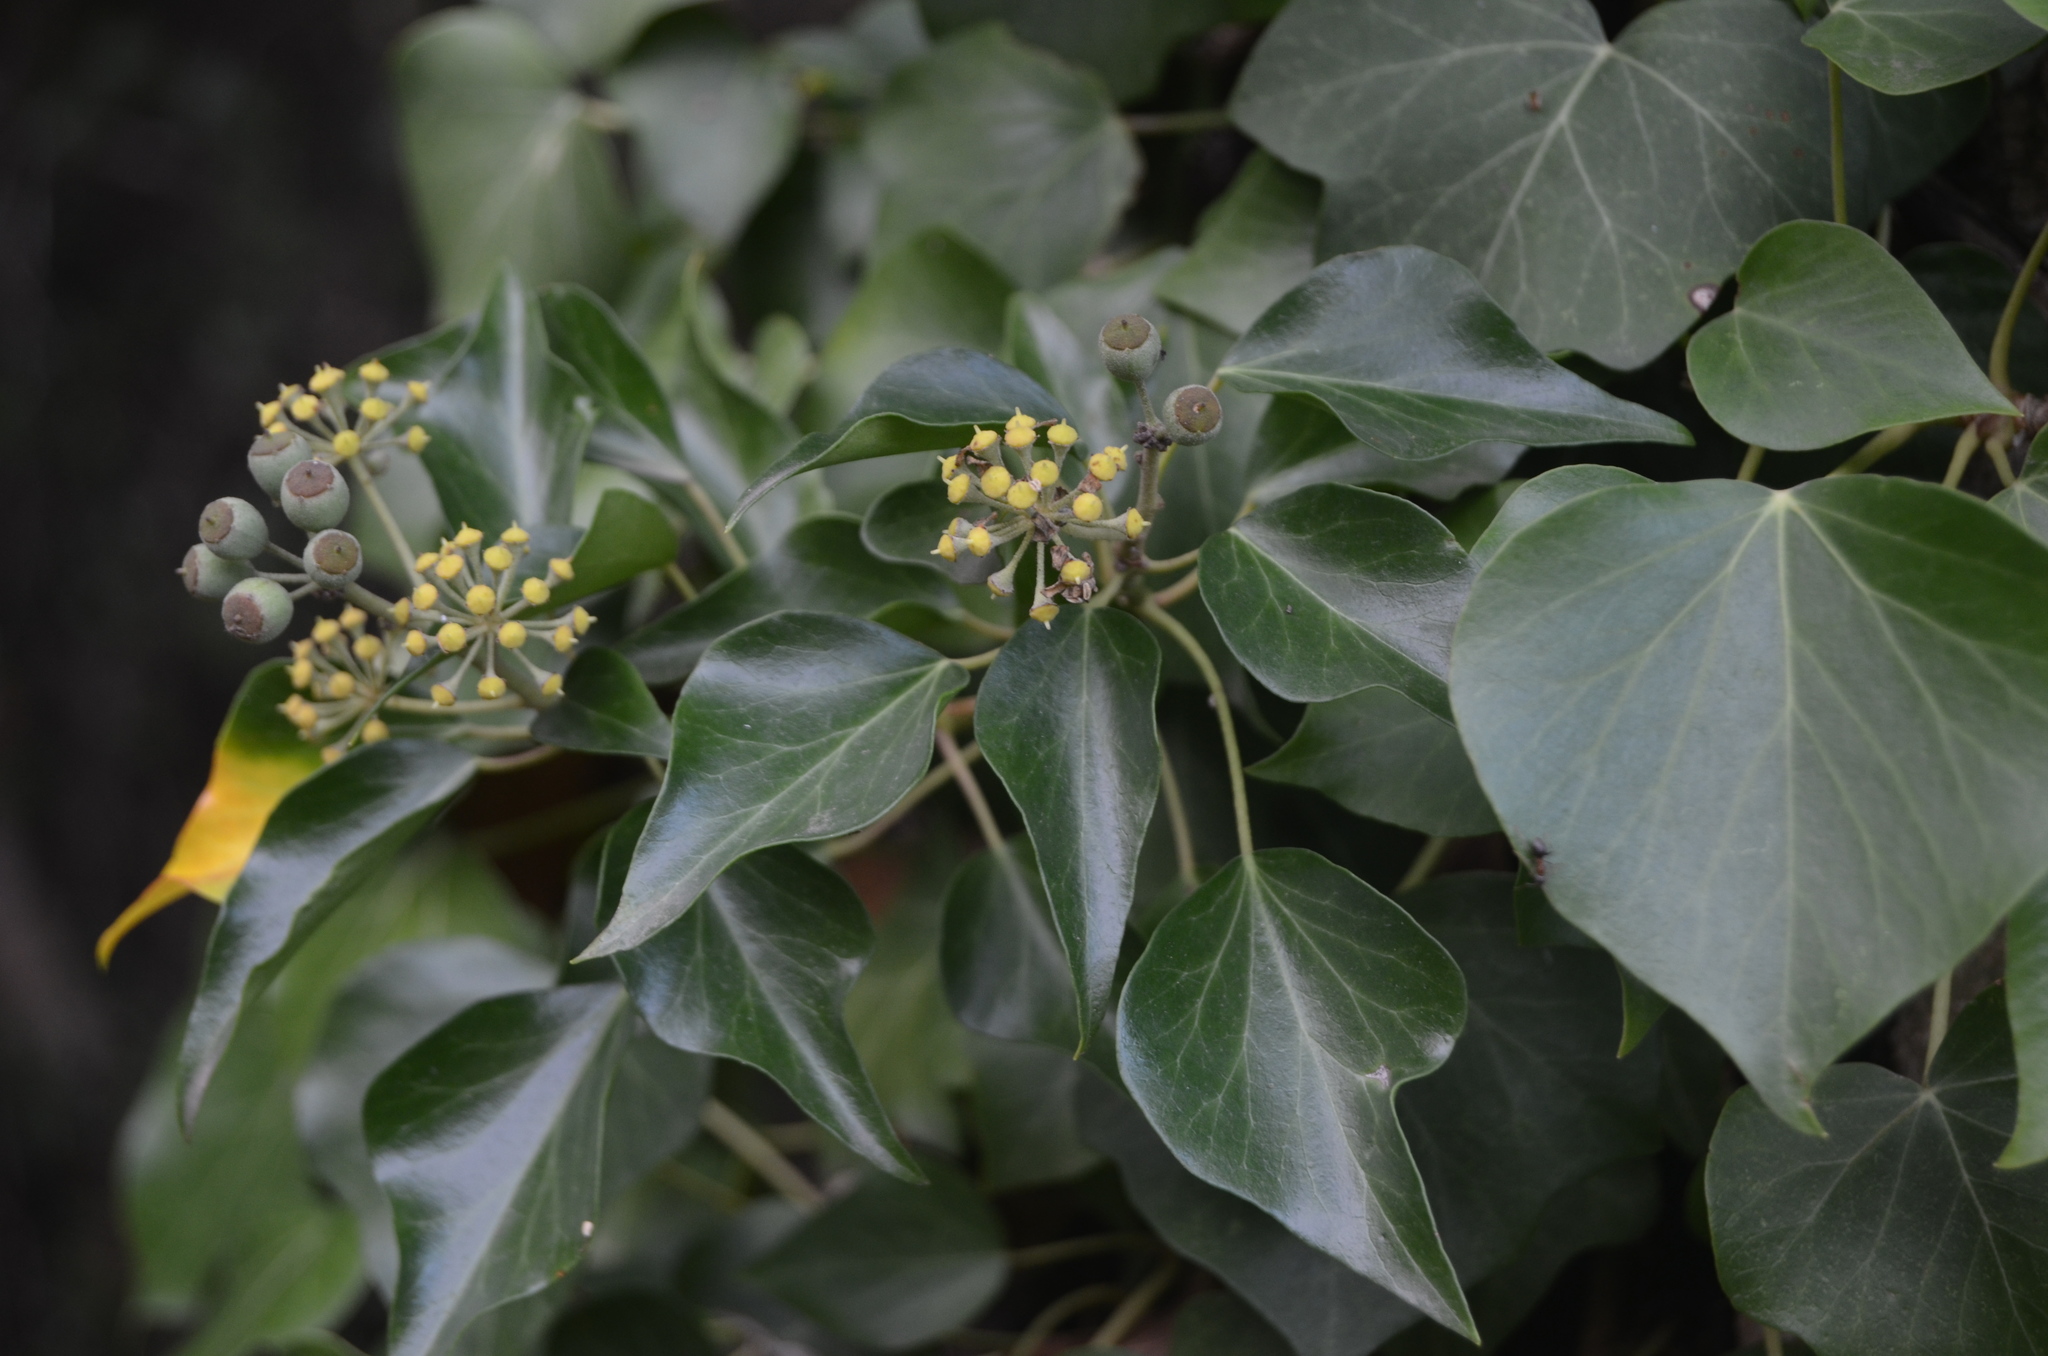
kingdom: Plantae
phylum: Tracheophyta
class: Magnoliopsida
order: Apiales
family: Araliaceae
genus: Hedera
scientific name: Hedera helix
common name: Ivy
